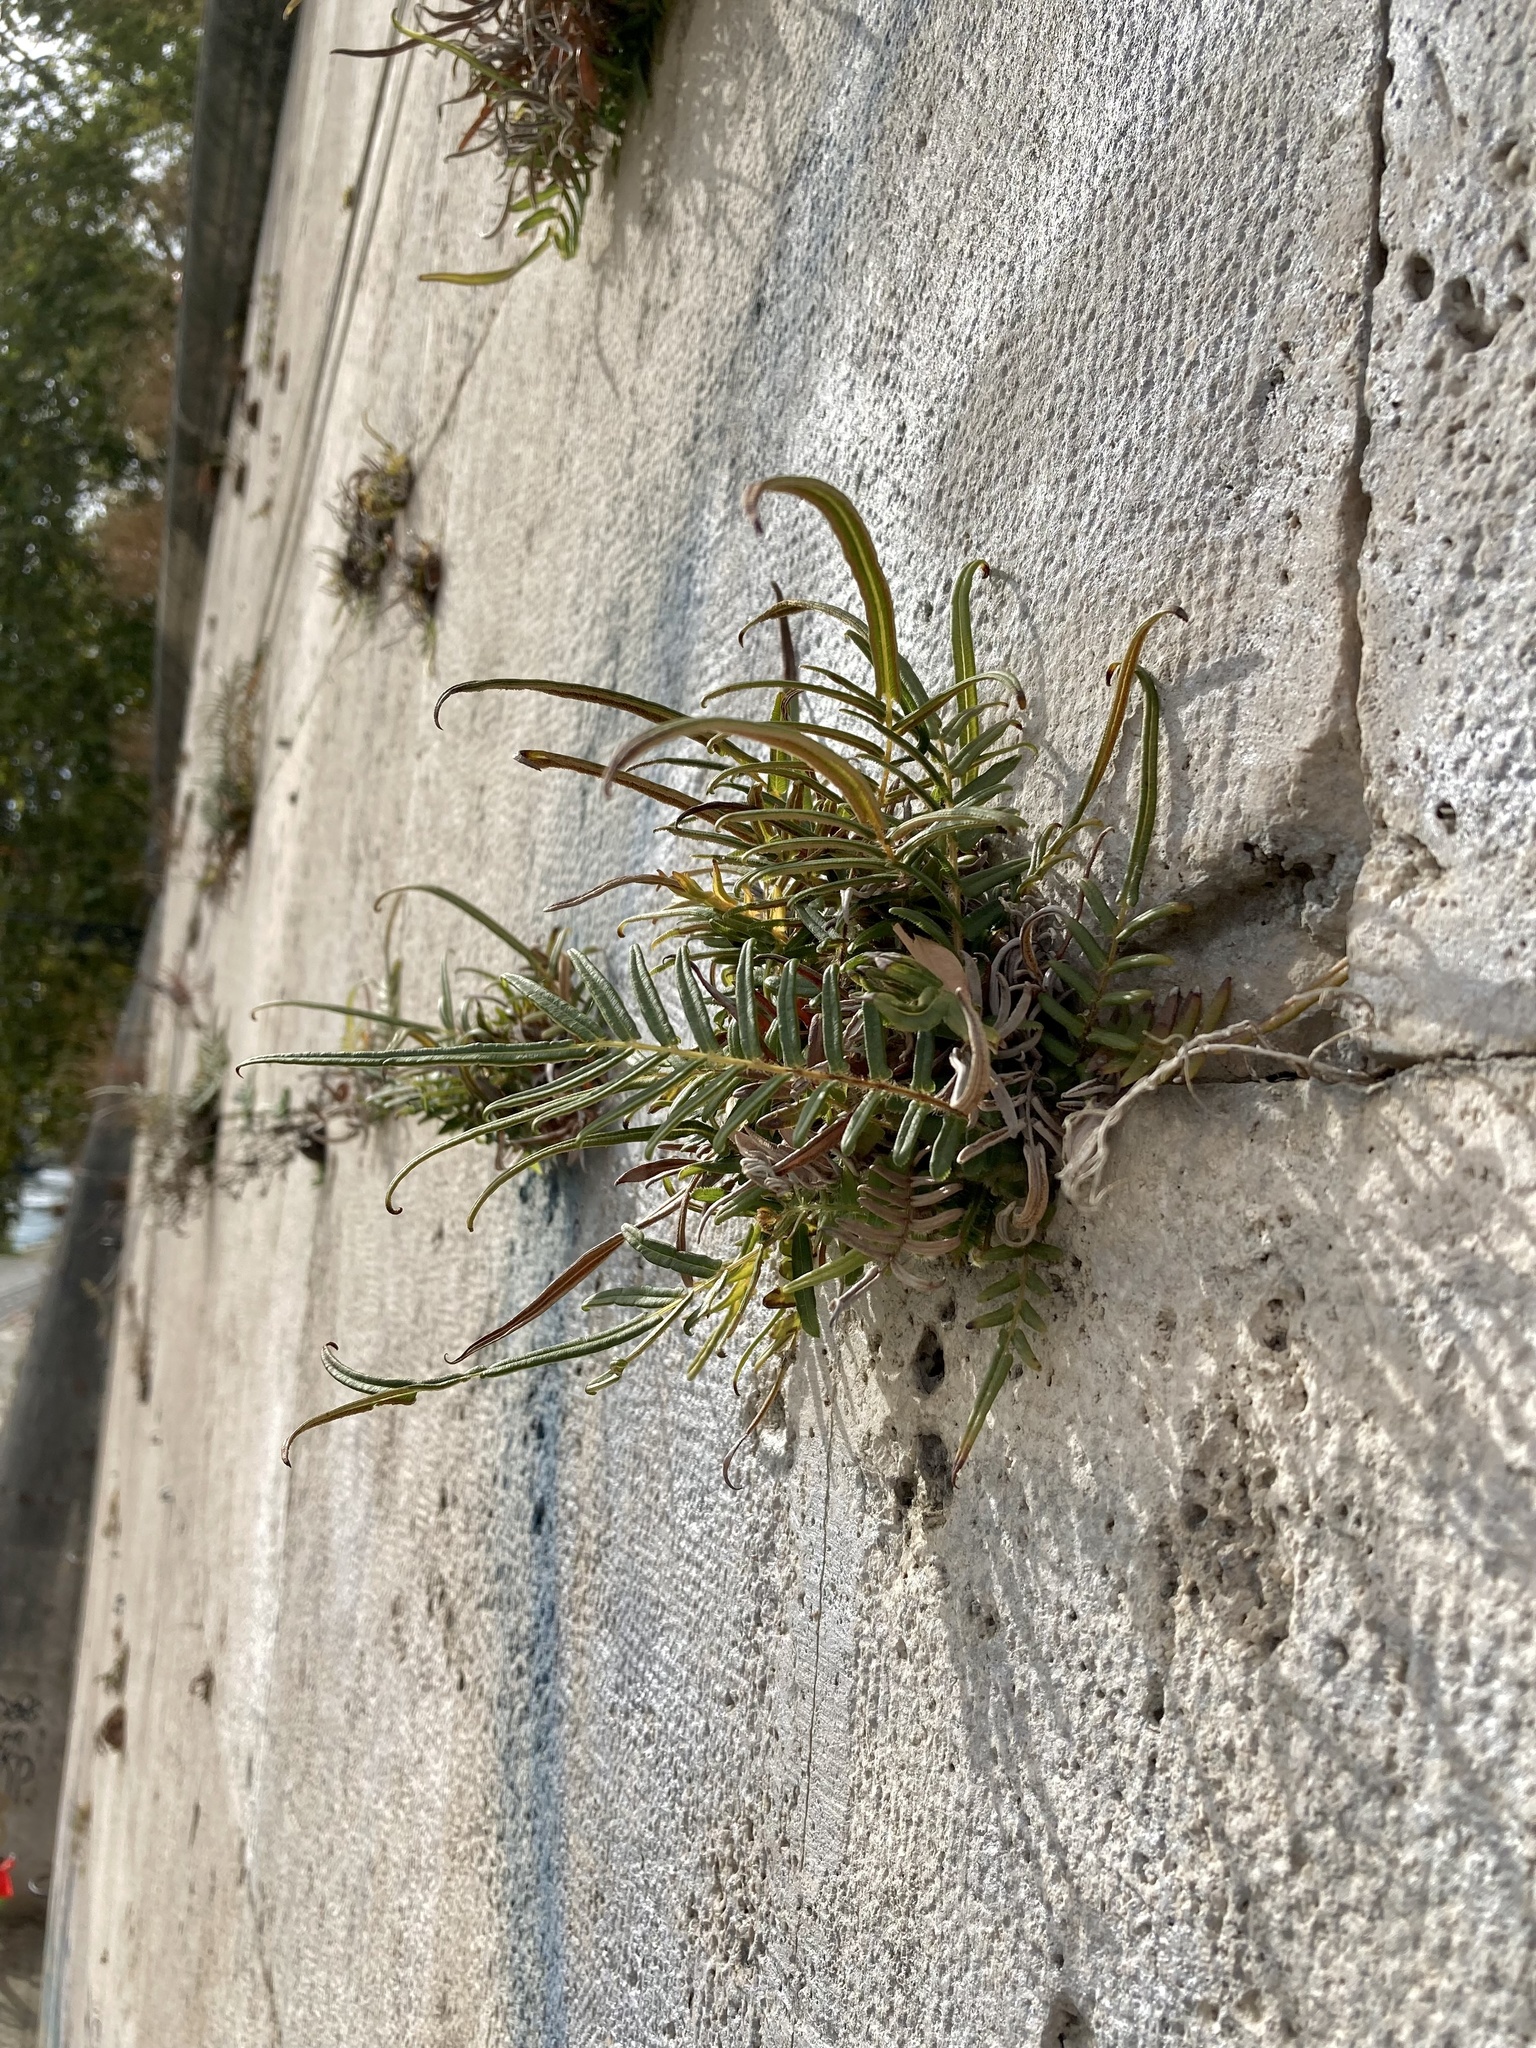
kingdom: Plantae
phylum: Tracheophyta
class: Polypodiopsida
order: Polypodiales
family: Pteridaceae
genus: Pteris
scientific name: Pteris vittata
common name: Ladder brake
